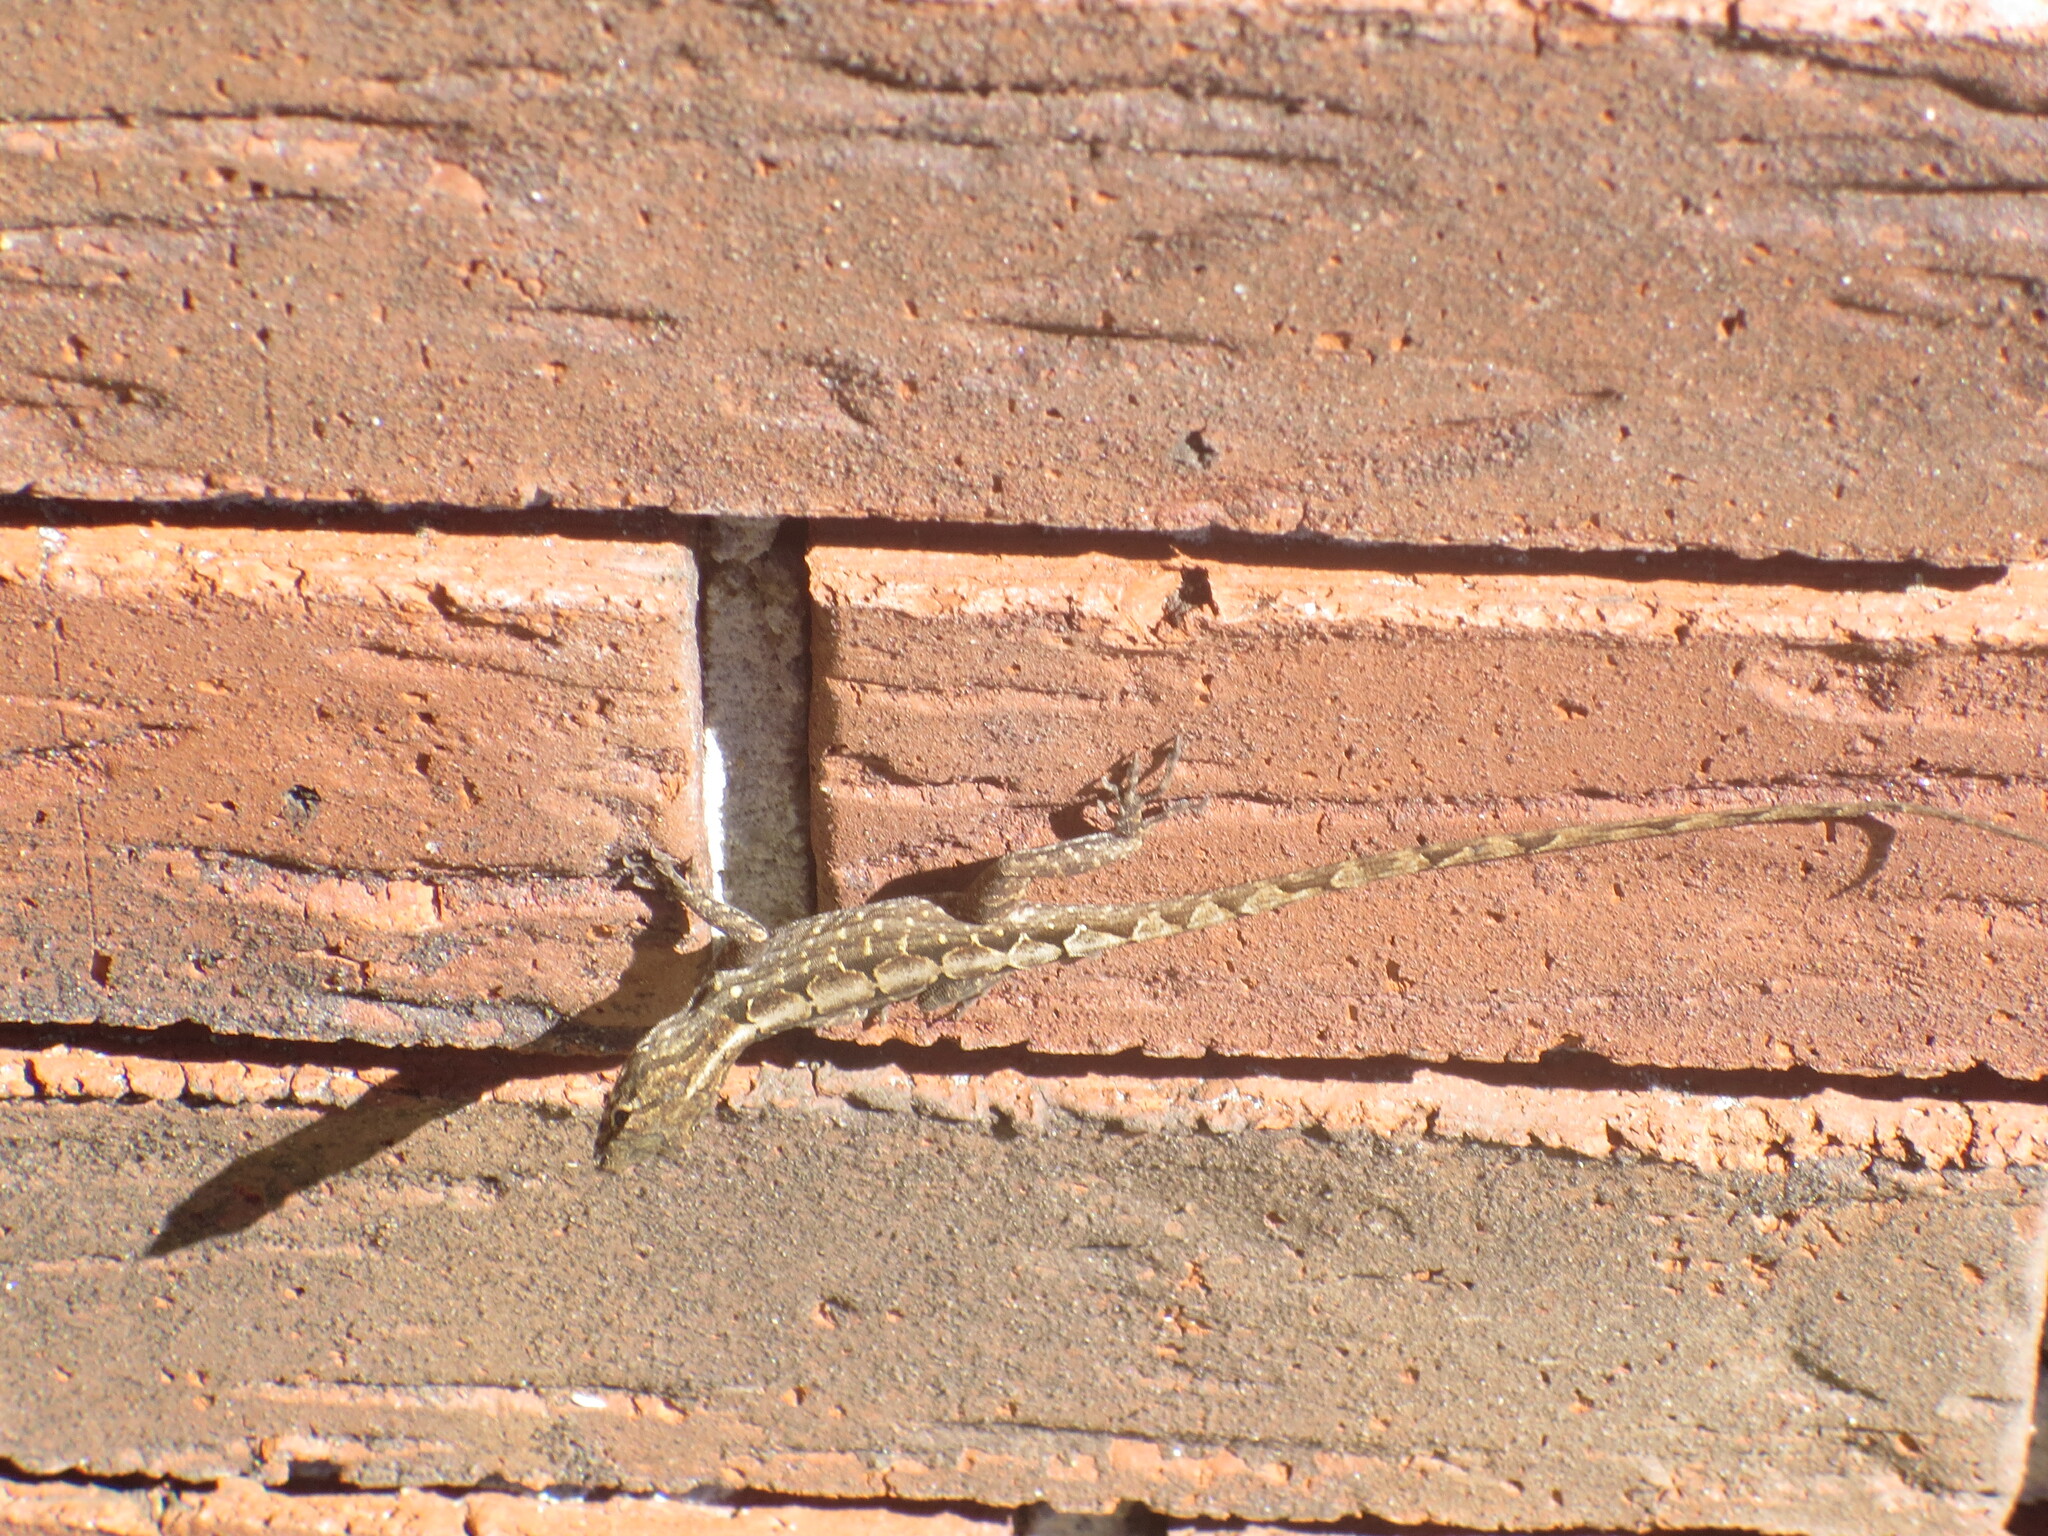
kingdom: Animalia
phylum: Chordata
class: Squamata
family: Dactyloidae
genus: Anolis
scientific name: Anolis sagrei
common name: Brown anole
